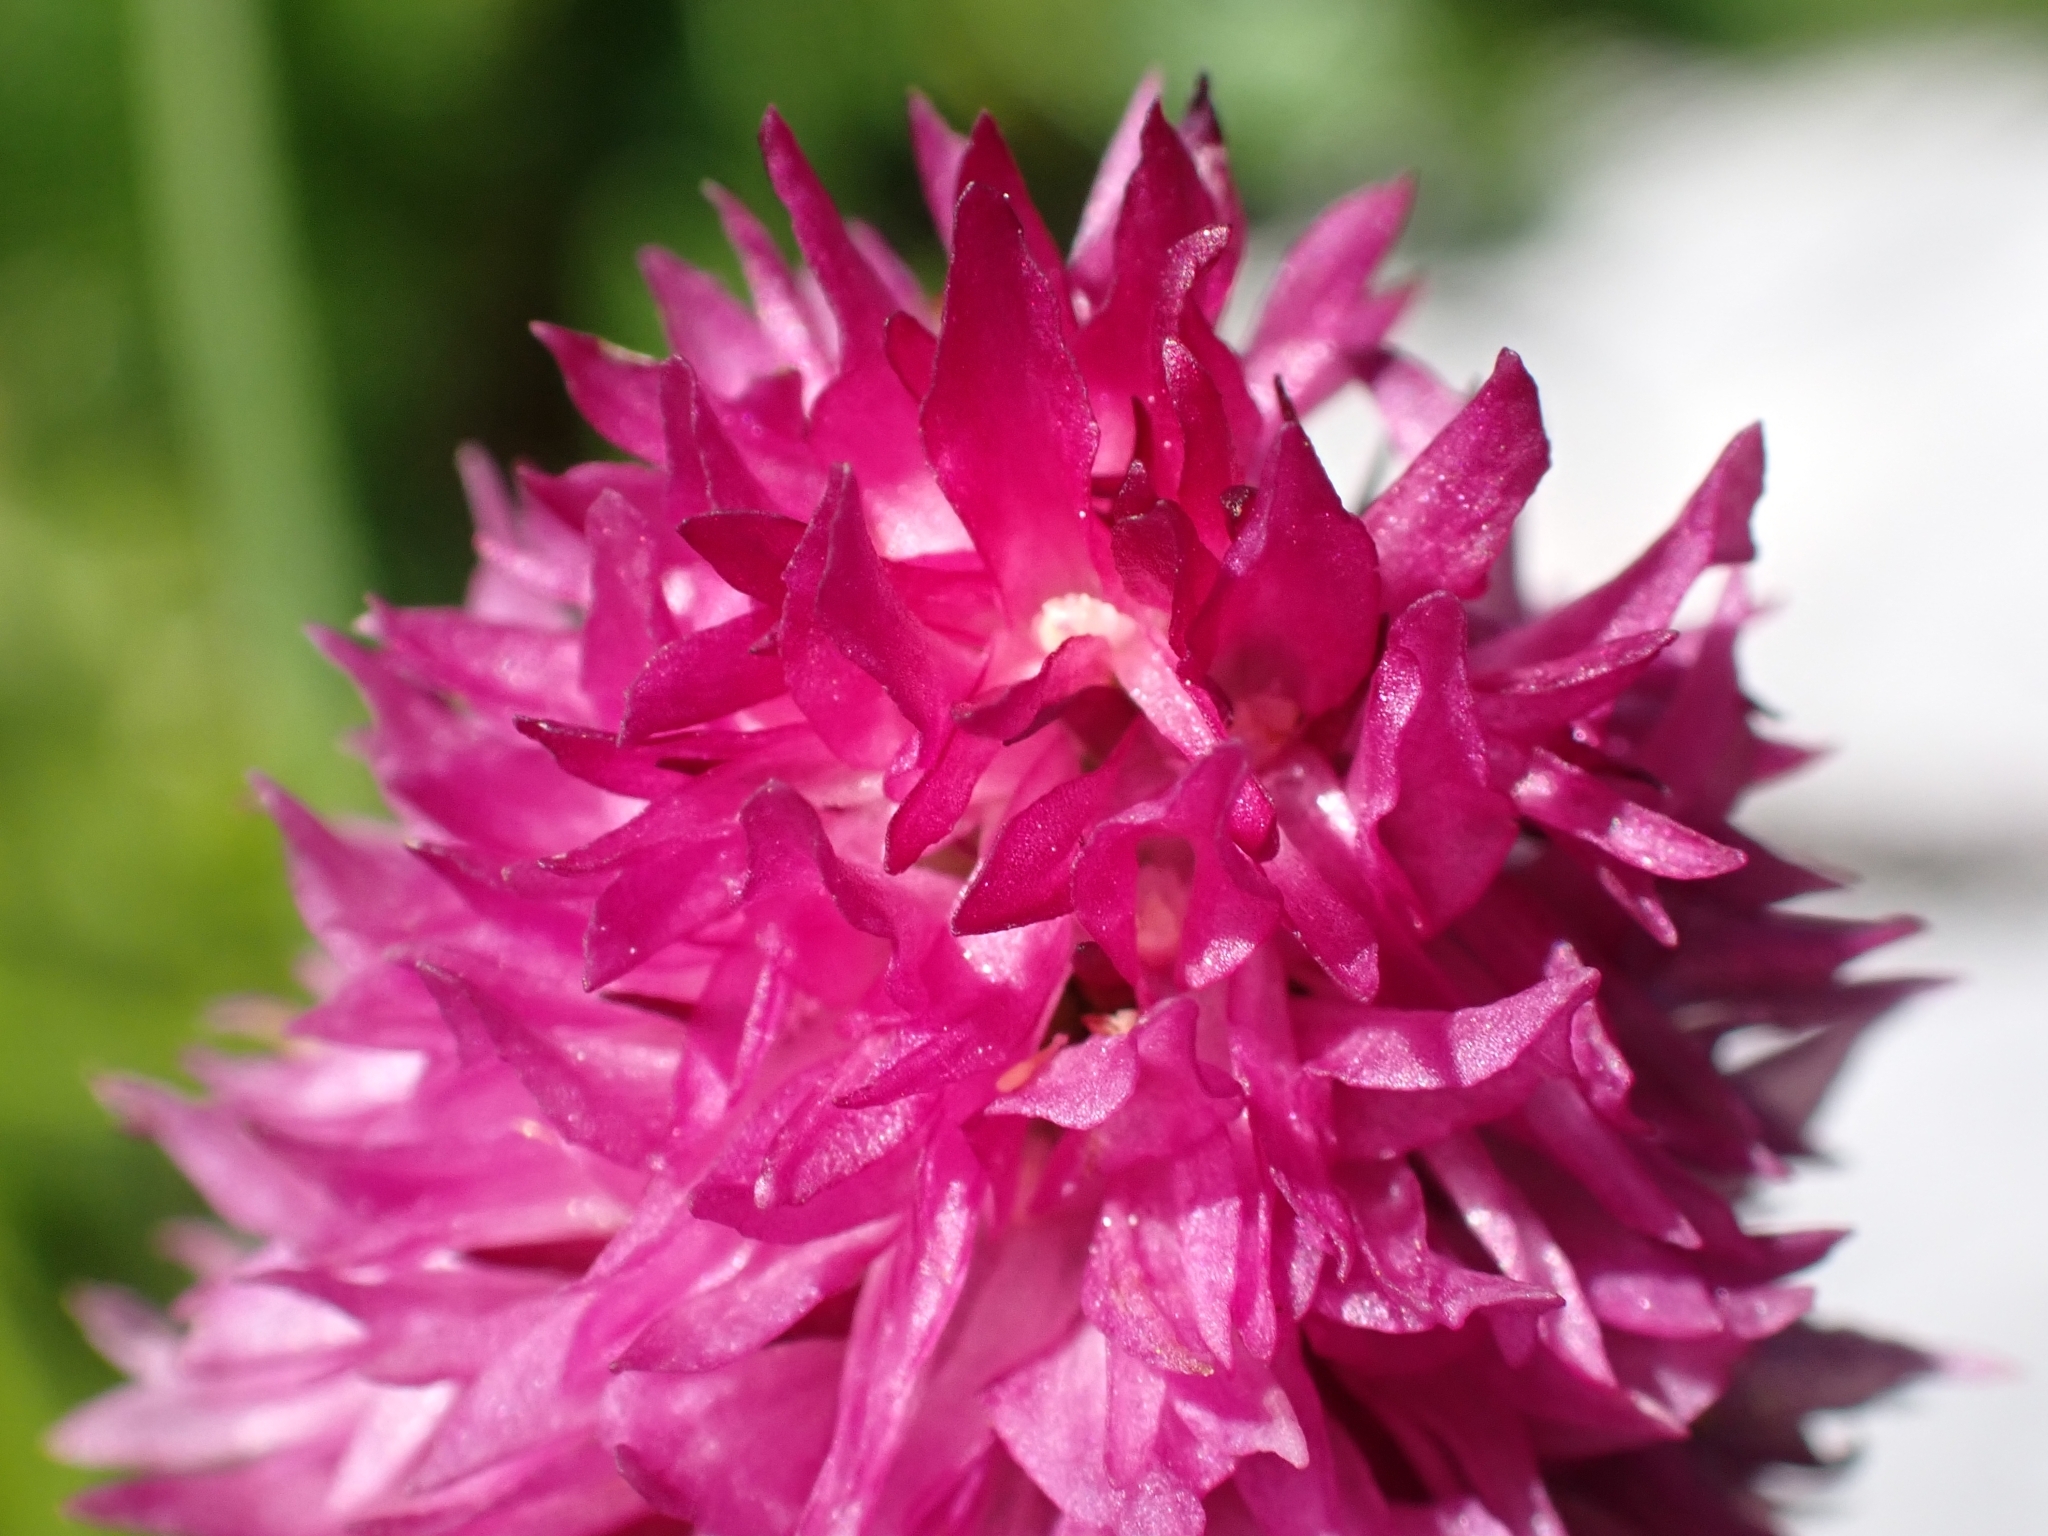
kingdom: Plantae
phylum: Tracheophyta
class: Liliopsida
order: Asparagales
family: Orchidaceae
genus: Gymnadenia
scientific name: Gymnadenia lithopolitanica
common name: Austrian gymnadenia
